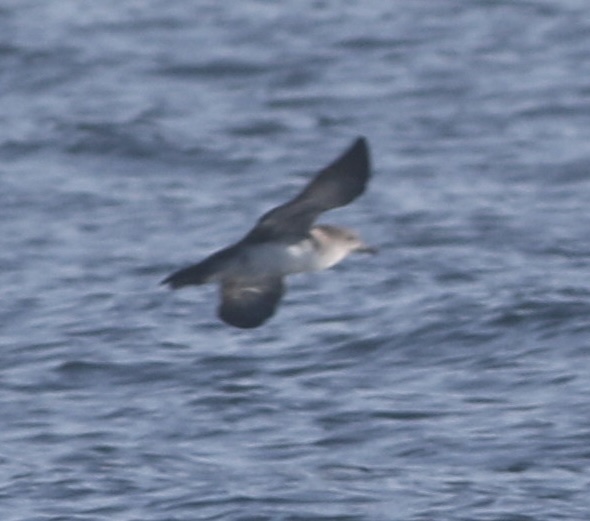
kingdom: Animalia
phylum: Chordata
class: Aves
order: Procellariiformes
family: Procellariidae
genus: Puffinus
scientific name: Puffinus opisthomelas
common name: Black-vented shearwater
